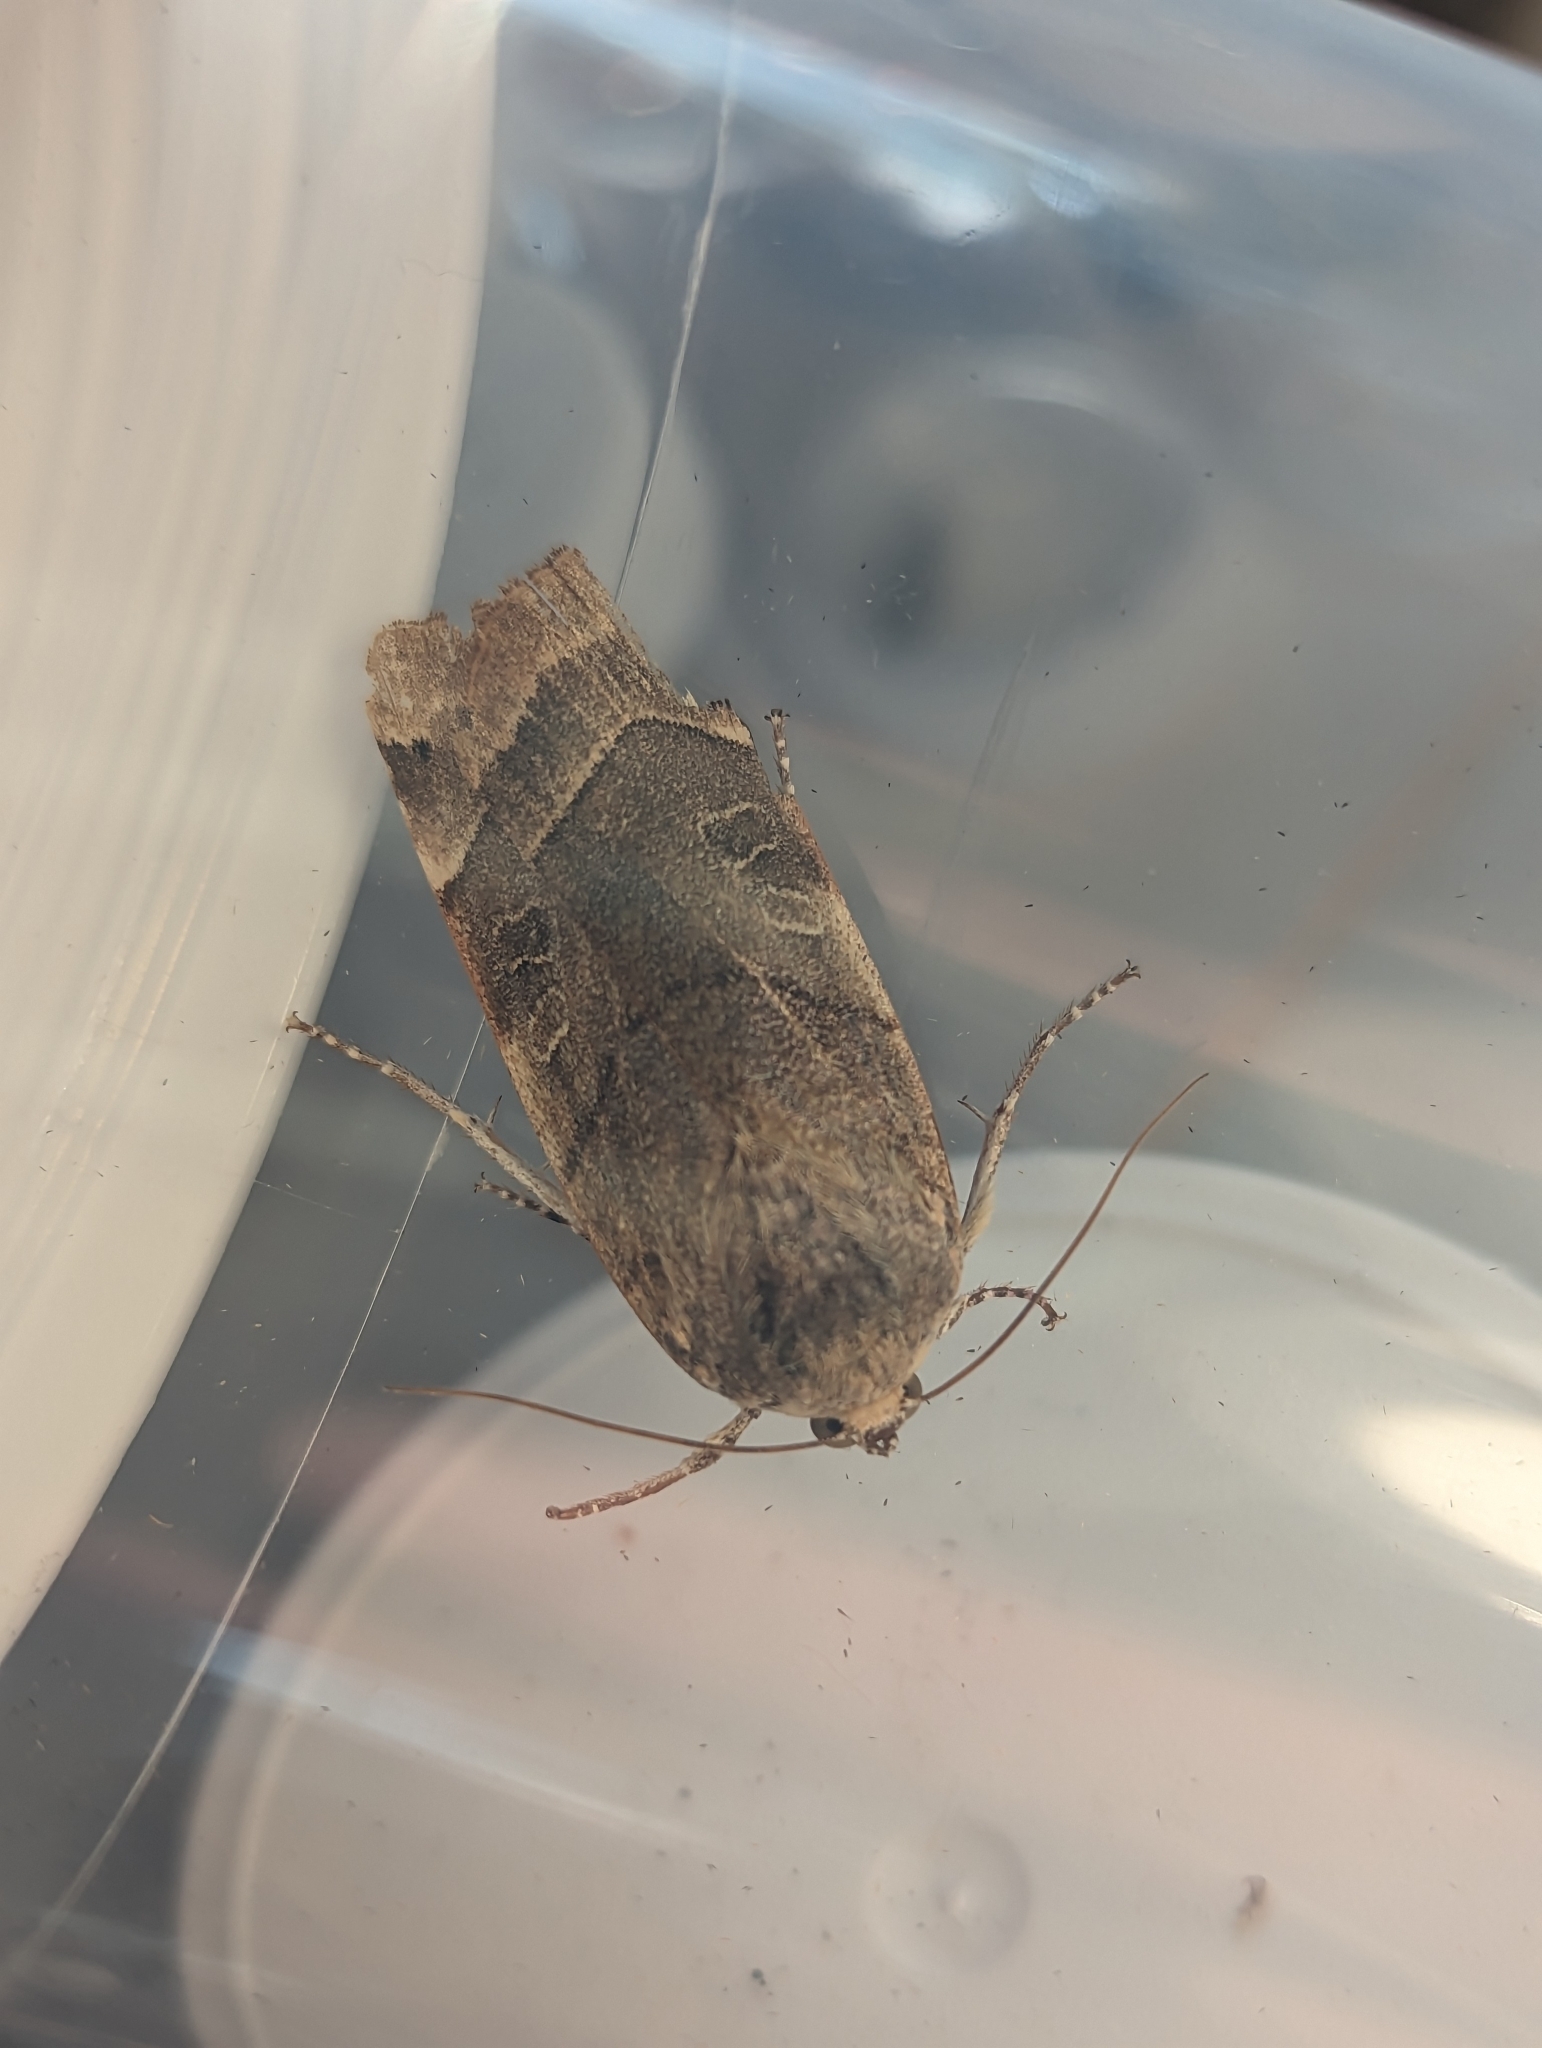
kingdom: Animalia
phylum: Arthropoda
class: Insecta
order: Lepidoptera
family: Noctuidae
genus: Noctua
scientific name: Noctua fimbriata
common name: Broad-bordered yellow underwing
